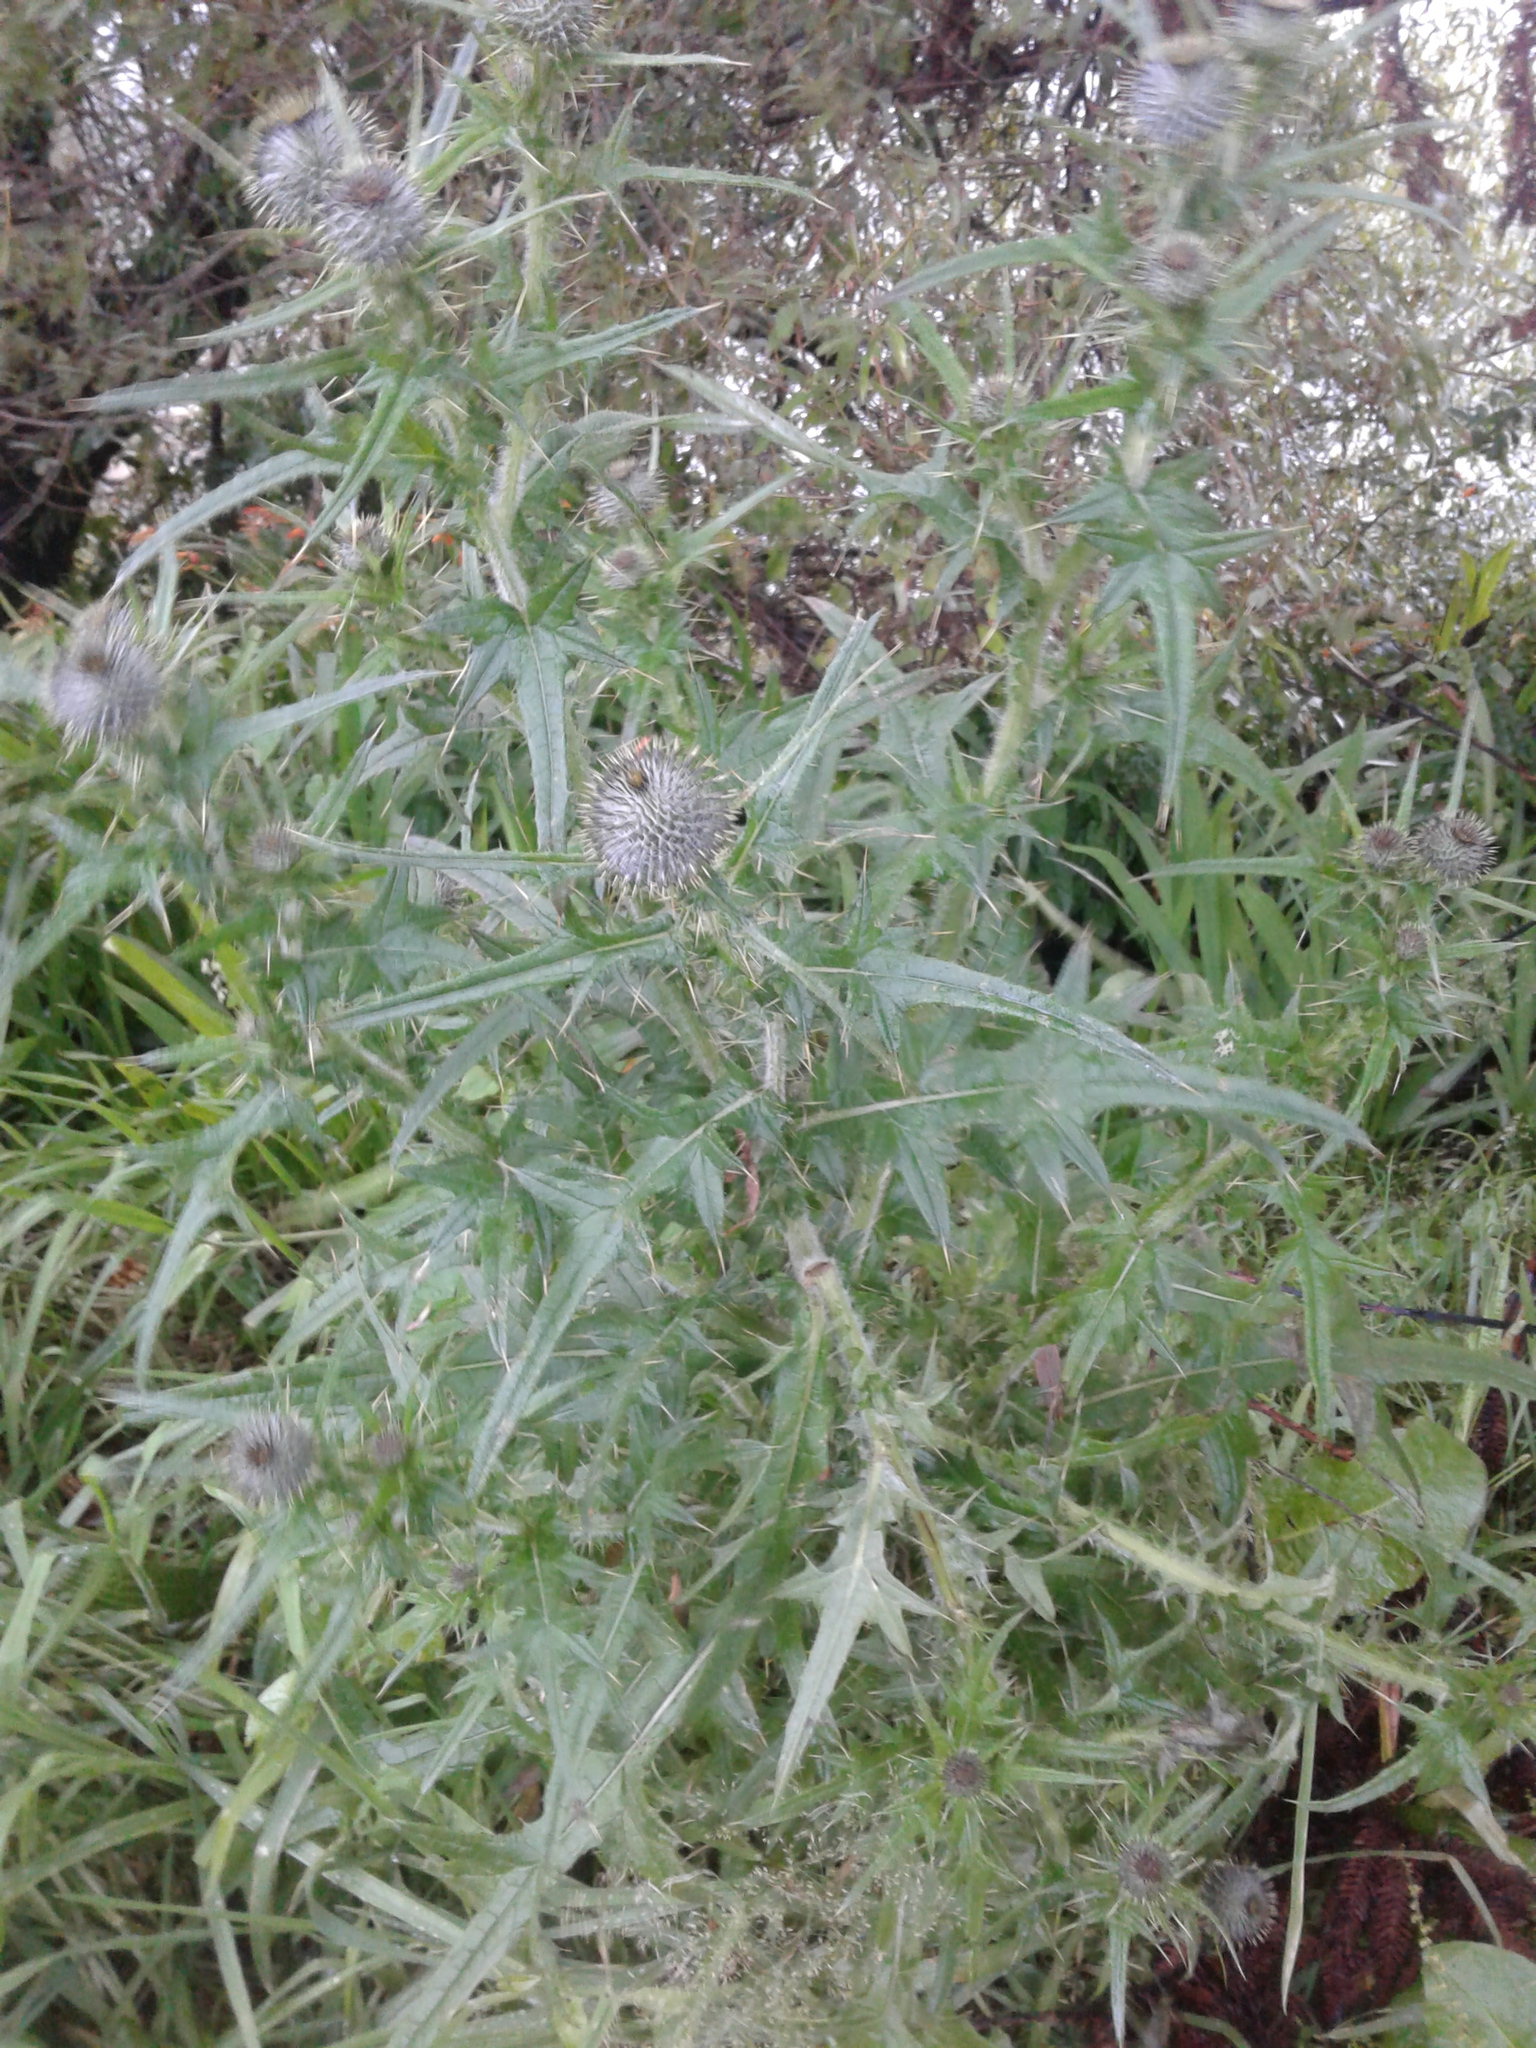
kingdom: Plantae
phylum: Tracheophyta
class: Magnoliopsida
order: Asterales
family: Asteraceae
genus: Cirsium
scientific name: Cirsium vulgare
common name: Bull thistle
